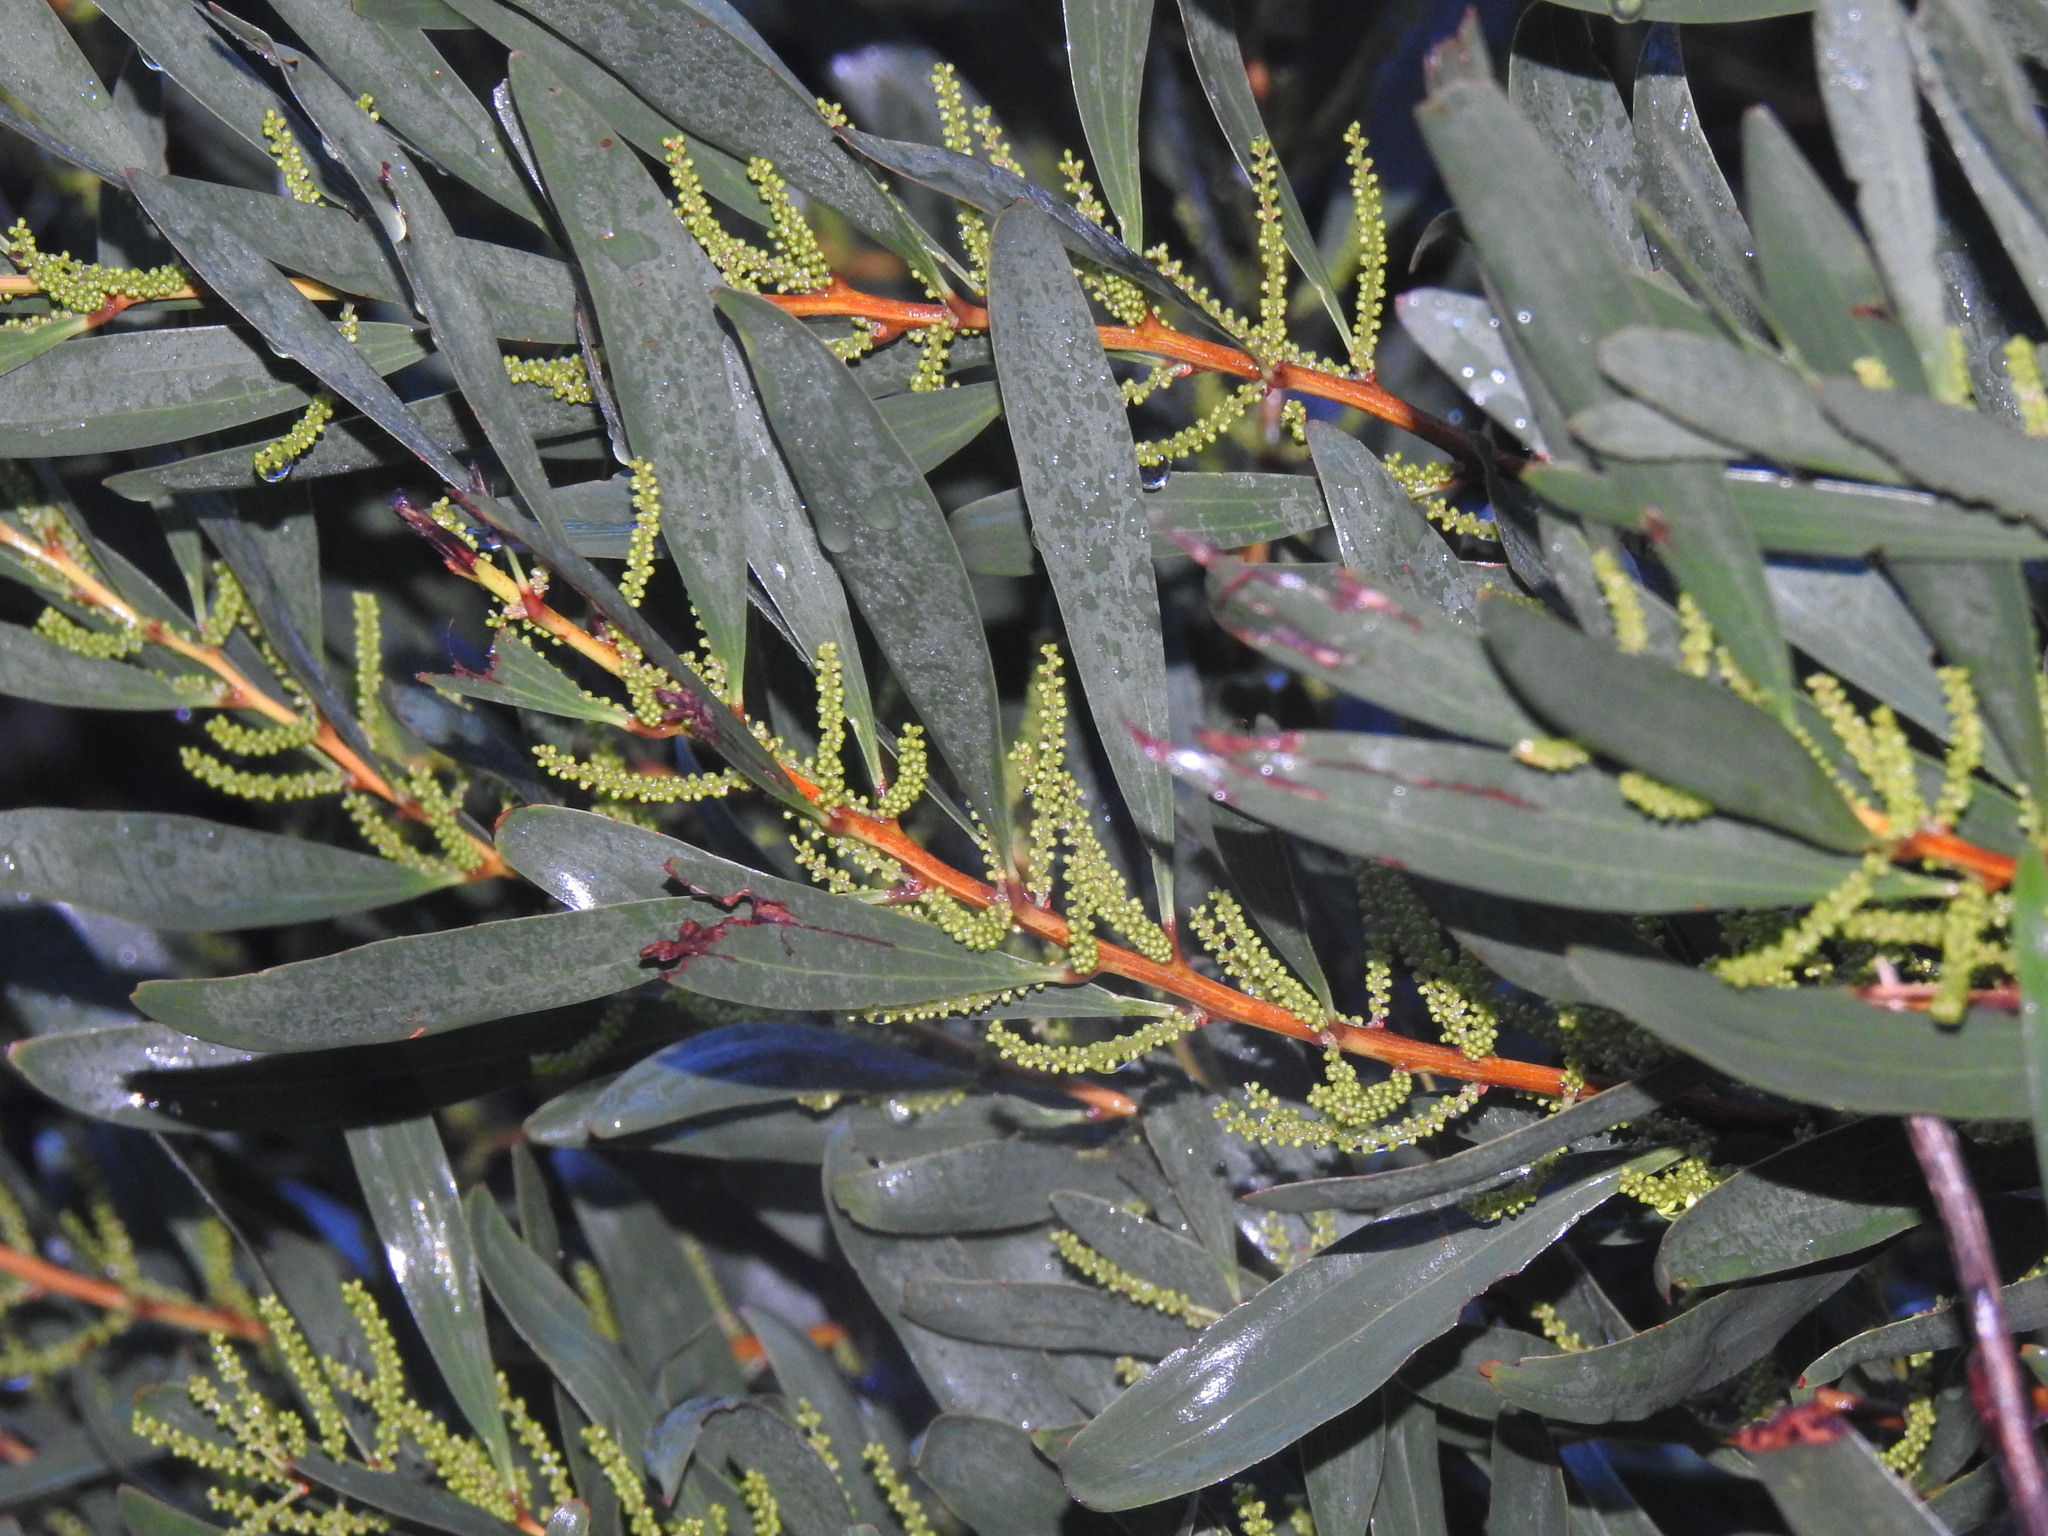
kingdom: Plantae
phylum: Tracheophyta
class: Magnoliopsida
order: Fabales
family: Fabaceae
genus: Acacia
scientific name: Acacia longifolia
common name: Sydney golden wattle
